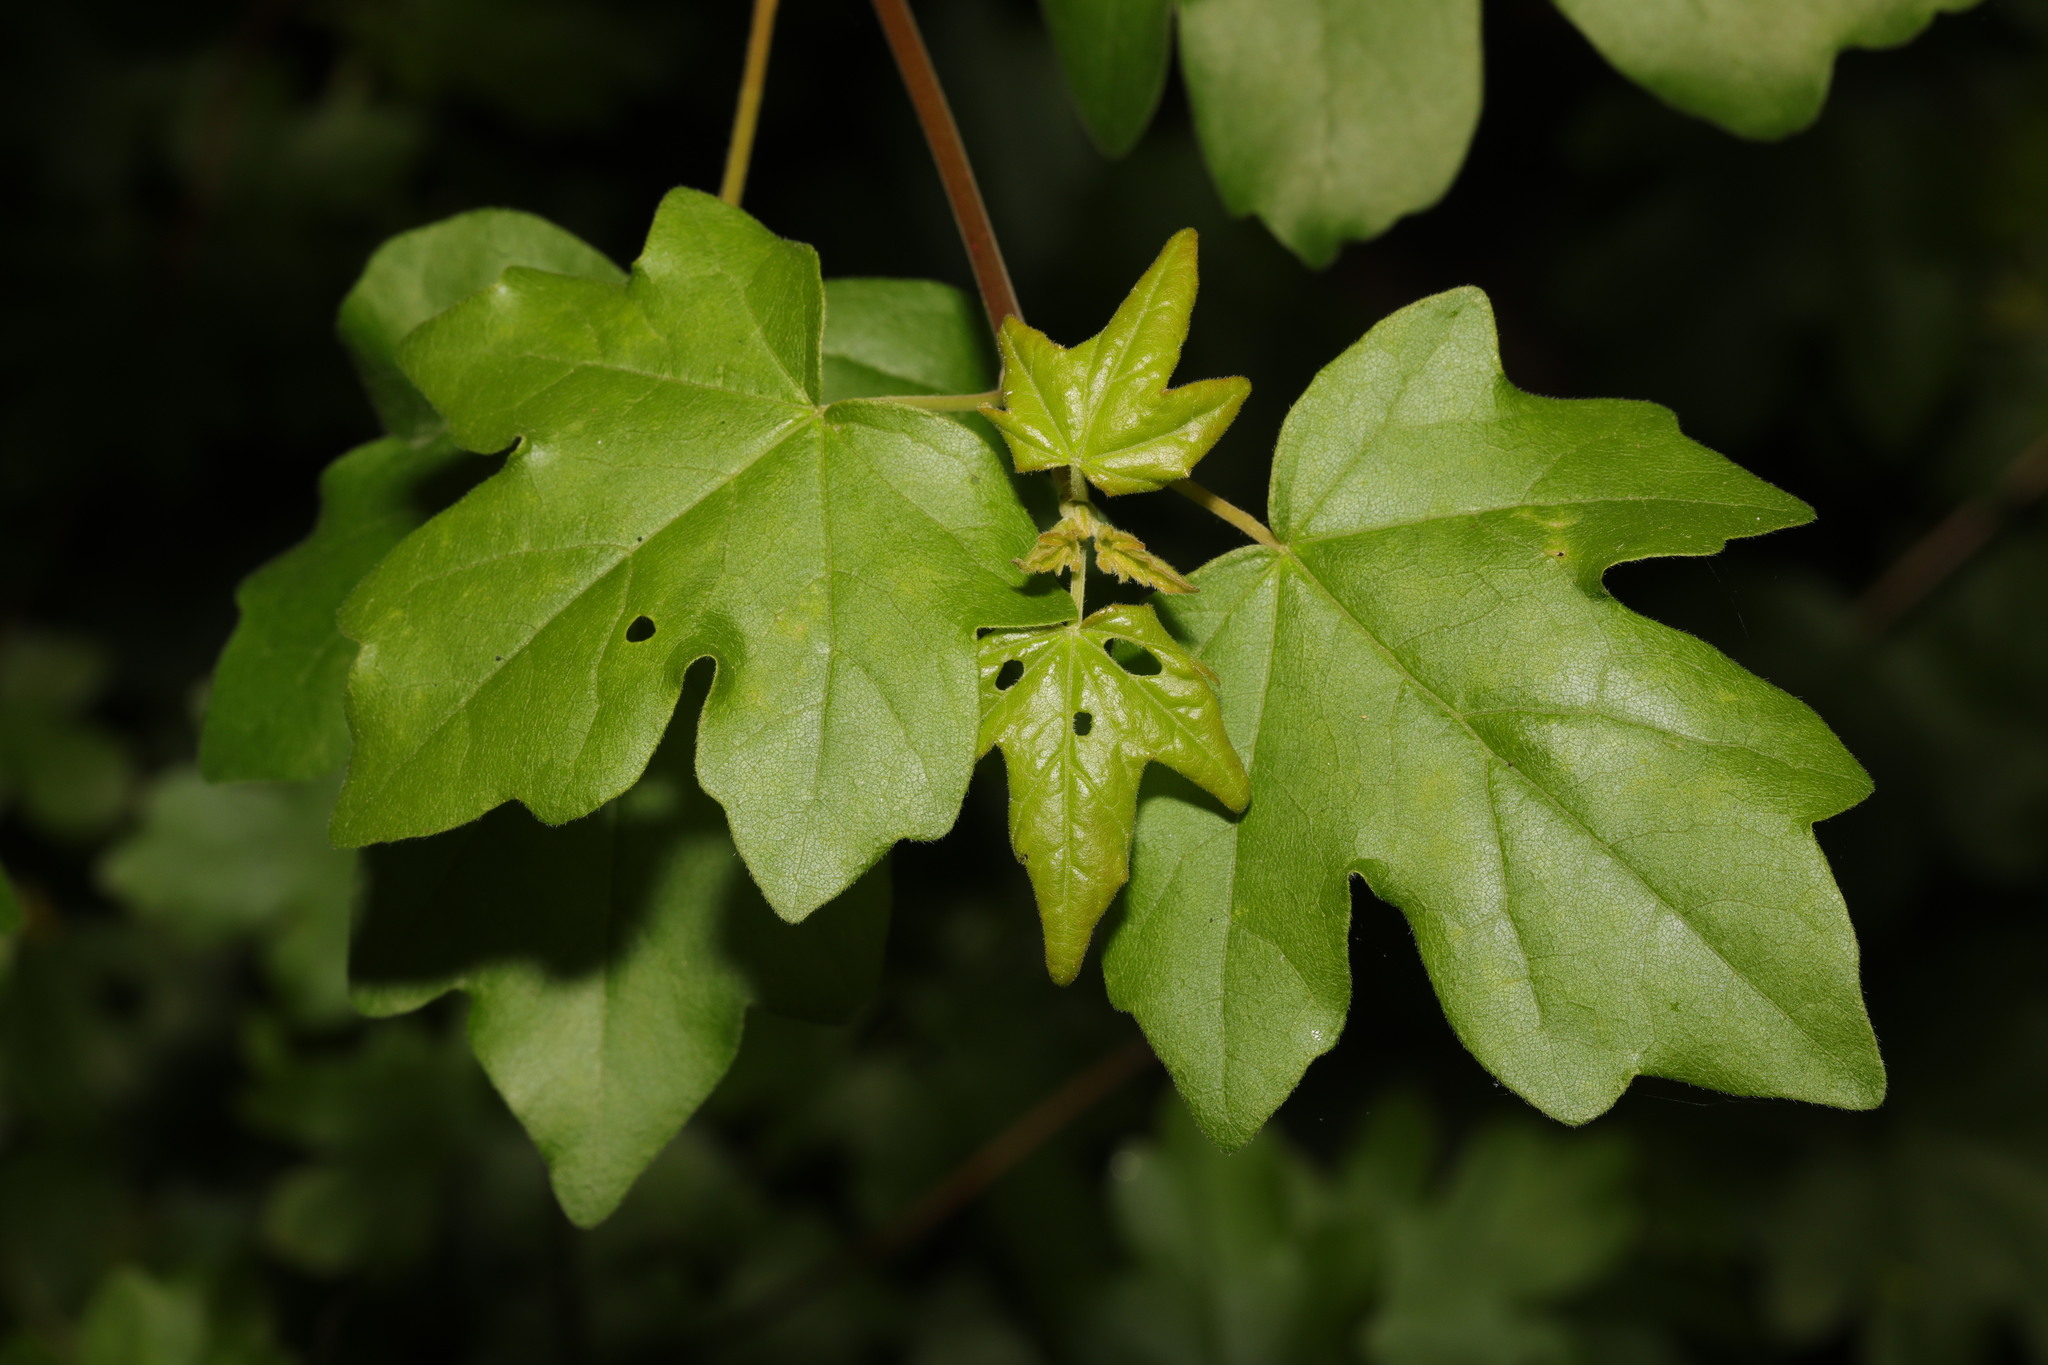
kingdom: Plantae
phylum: Tracheophyta
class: Magnoliopsida
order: Sapindales
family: Sapindaceae
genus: Acer
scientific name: Acer campestre
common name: Field maple
